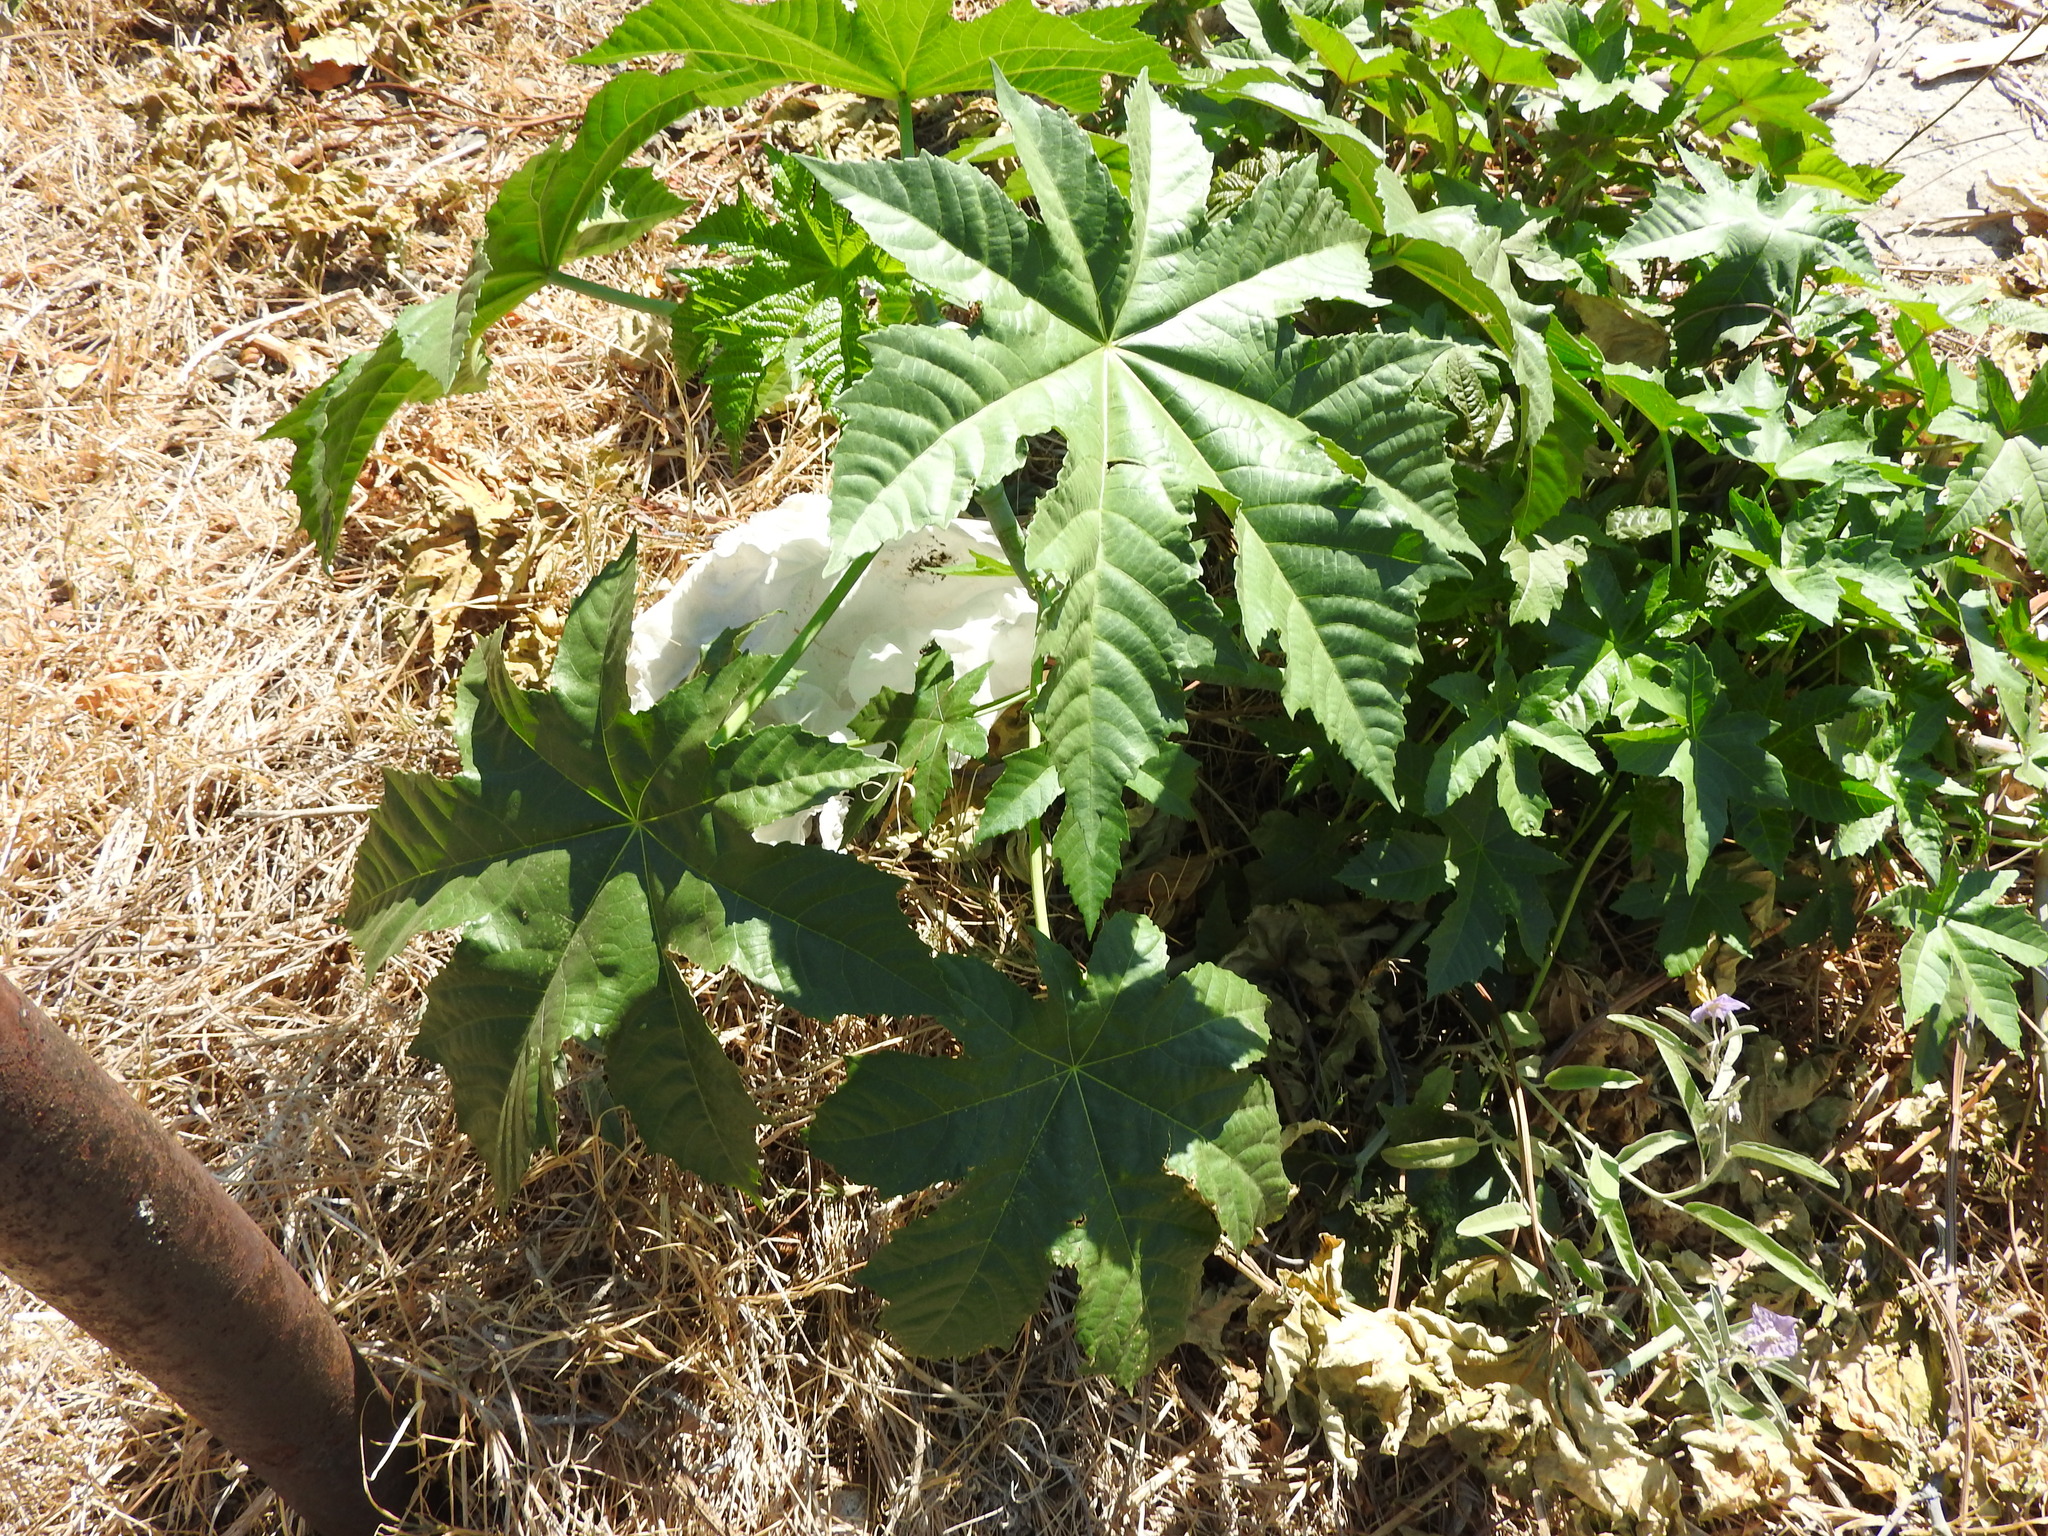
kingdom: Plantae
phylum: Tracheophyta
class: Magnoliopsida
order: Malpighiales
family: Euphorbiaceae
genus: Ricinus
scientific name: Ricinus communis
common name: Castor-oil-plant
